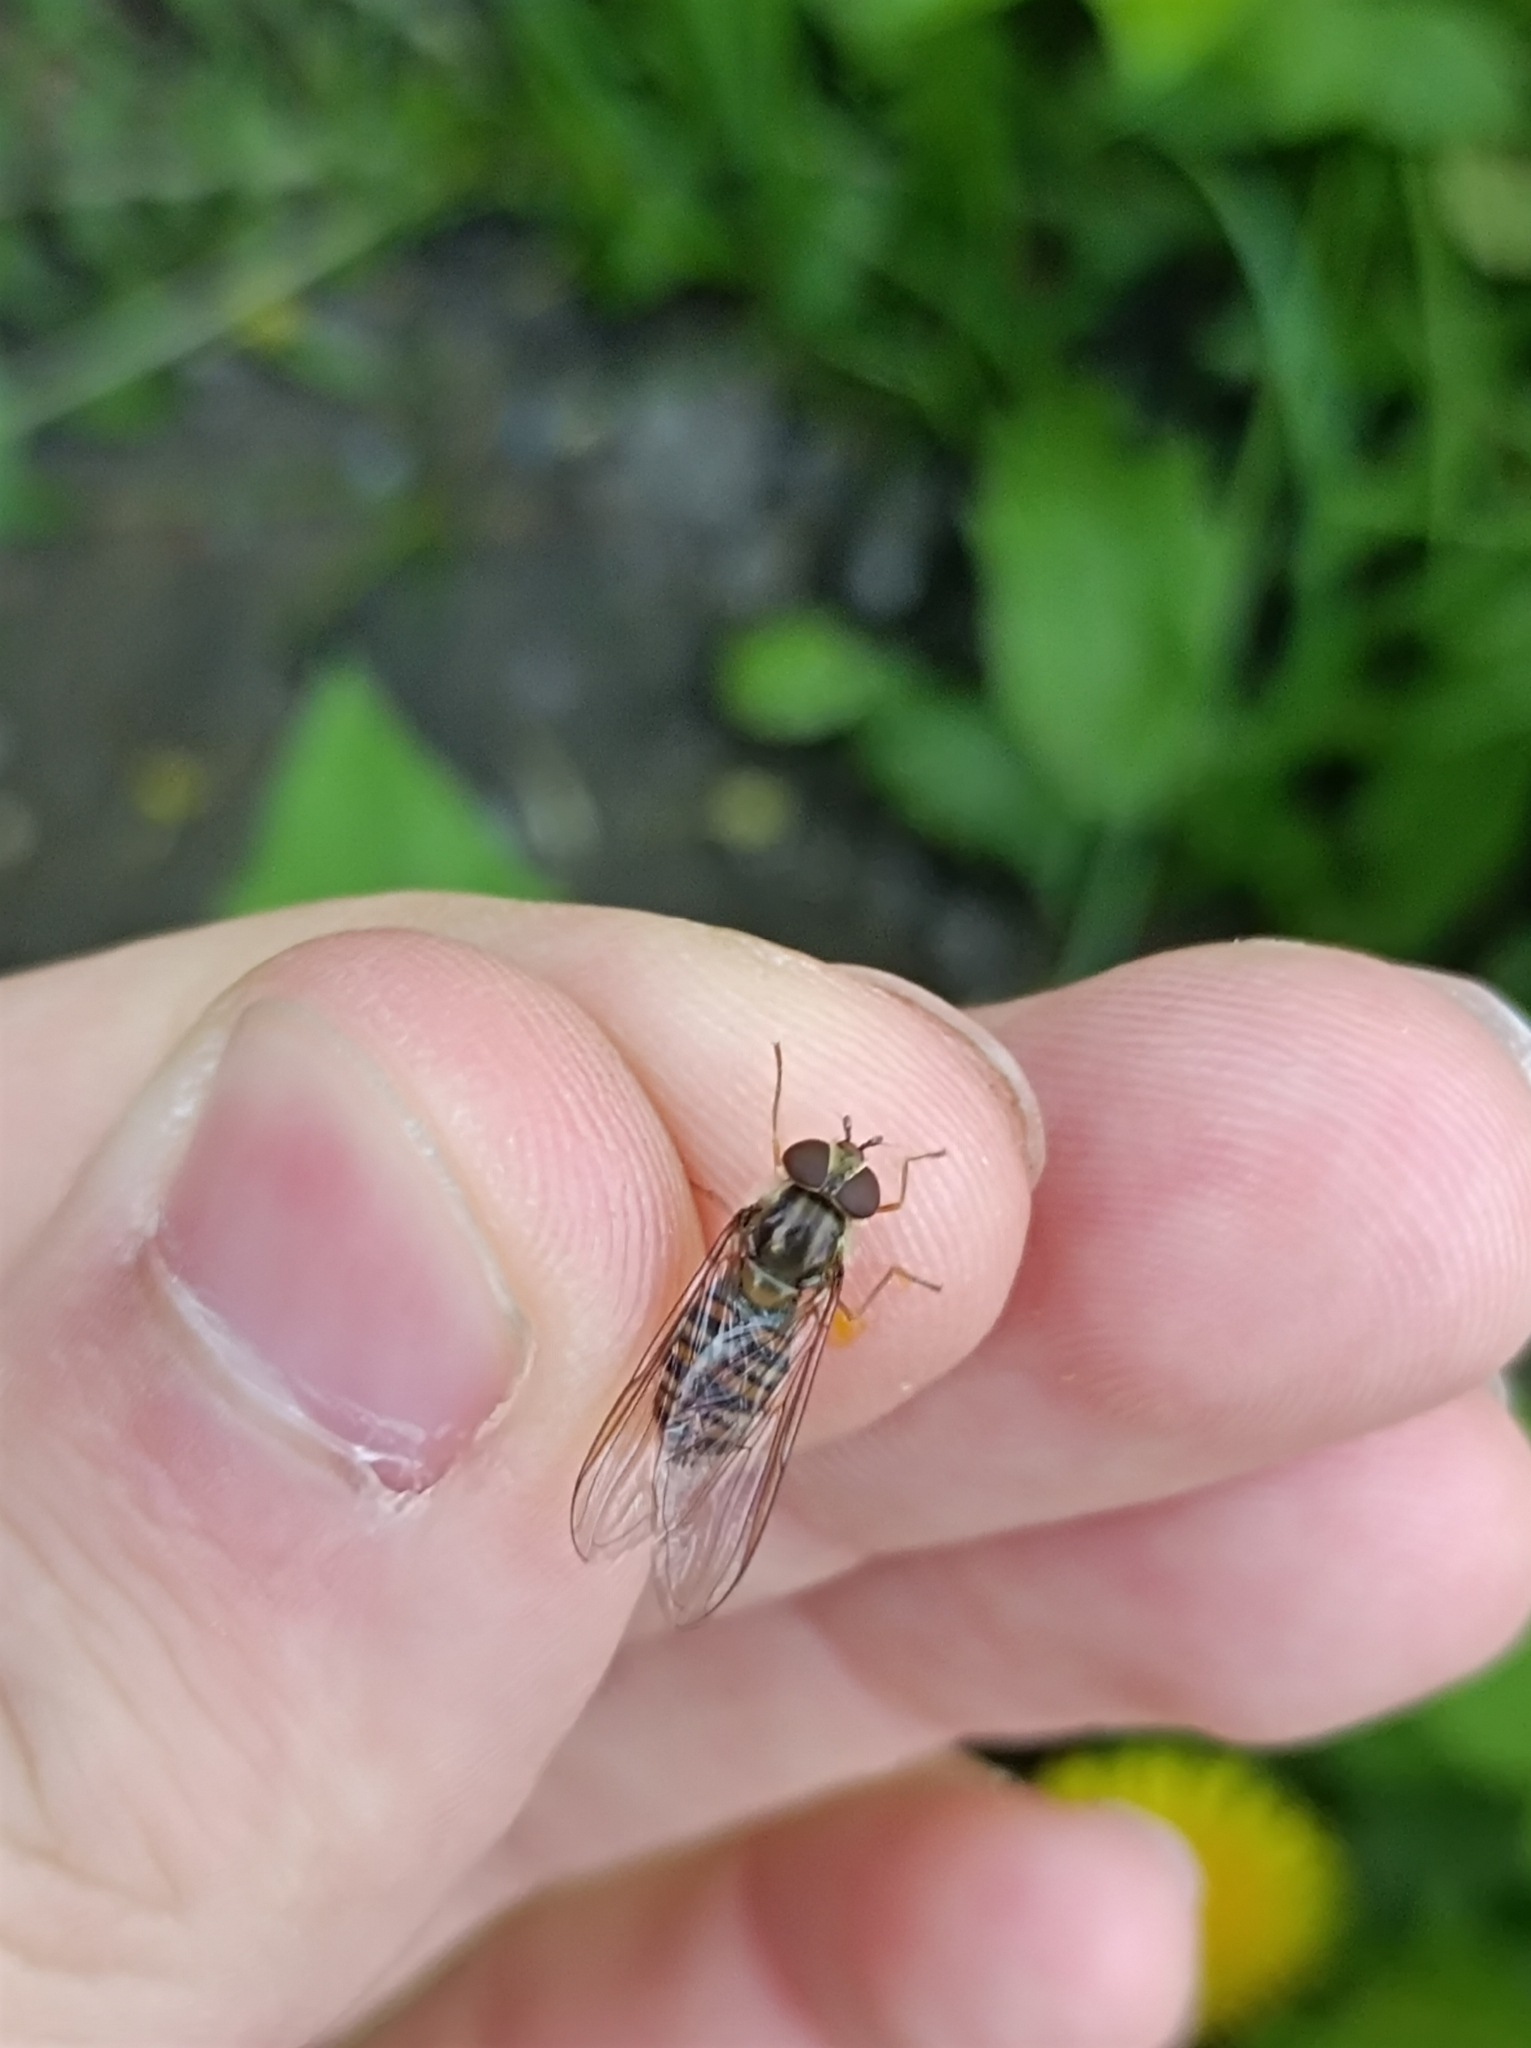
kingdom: Animalia
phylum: Arthropoda
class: Insecta
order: Diptera
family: Syrphidae
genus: Episyrphus
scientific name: Episyrphus balteatus
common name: Marmalade hoverfly
